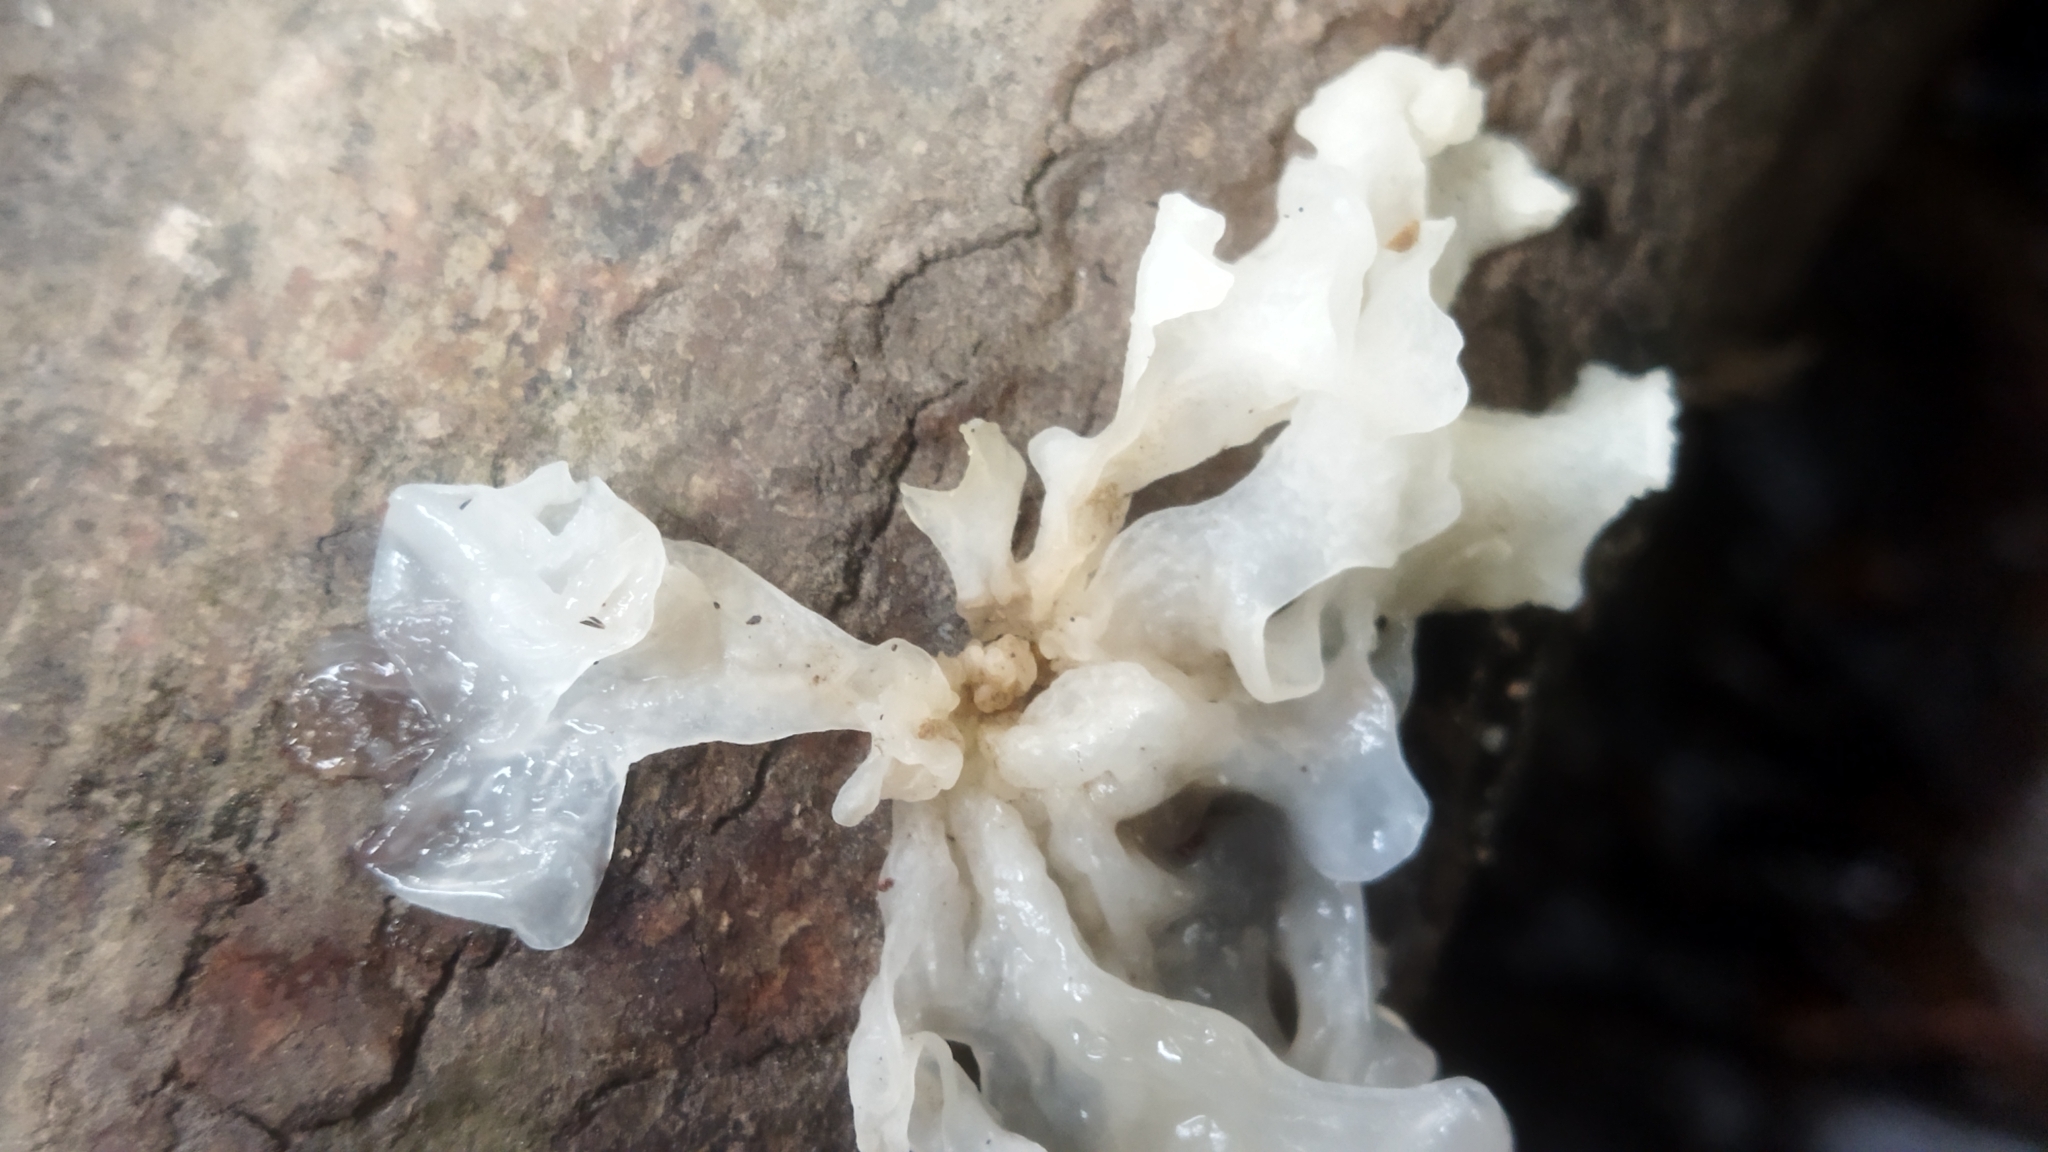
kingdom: Fungi
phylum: Basidiomycota
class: Tremellomycetes
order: Tremellales
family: Tremellaceae
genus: Tremella
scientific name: Tremella fuciformis
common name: Snow fungus
